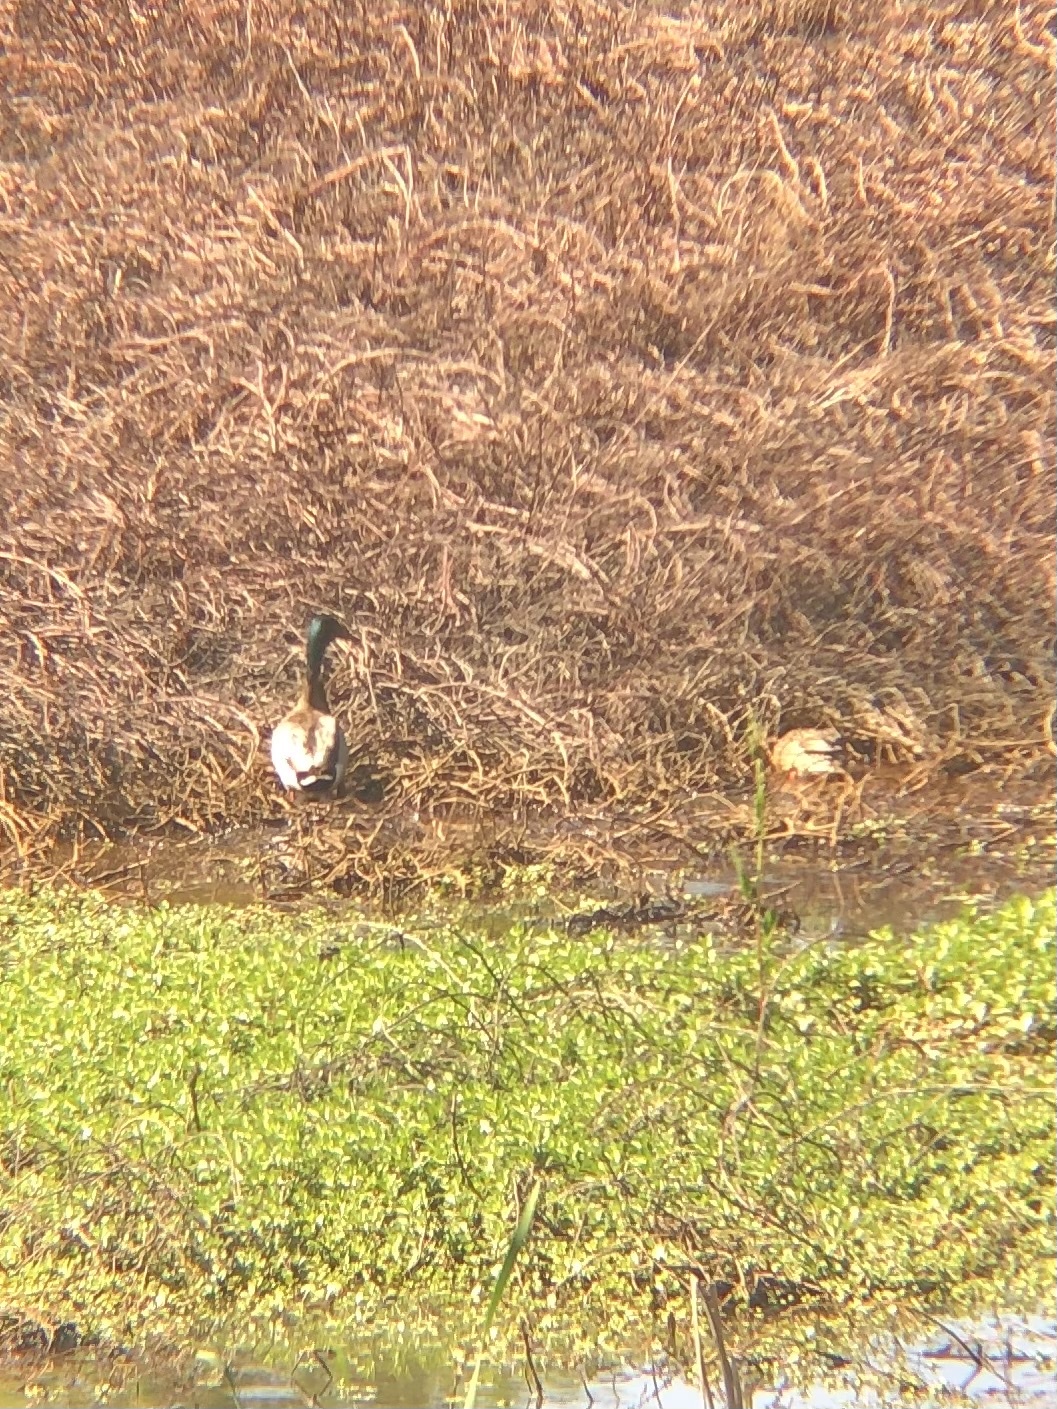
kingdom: Animalia
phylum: Chordata
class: Aves
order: Anseriformes
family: Anatidae
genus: Anas
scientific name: Anas platyrhynchos
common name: Mallard
